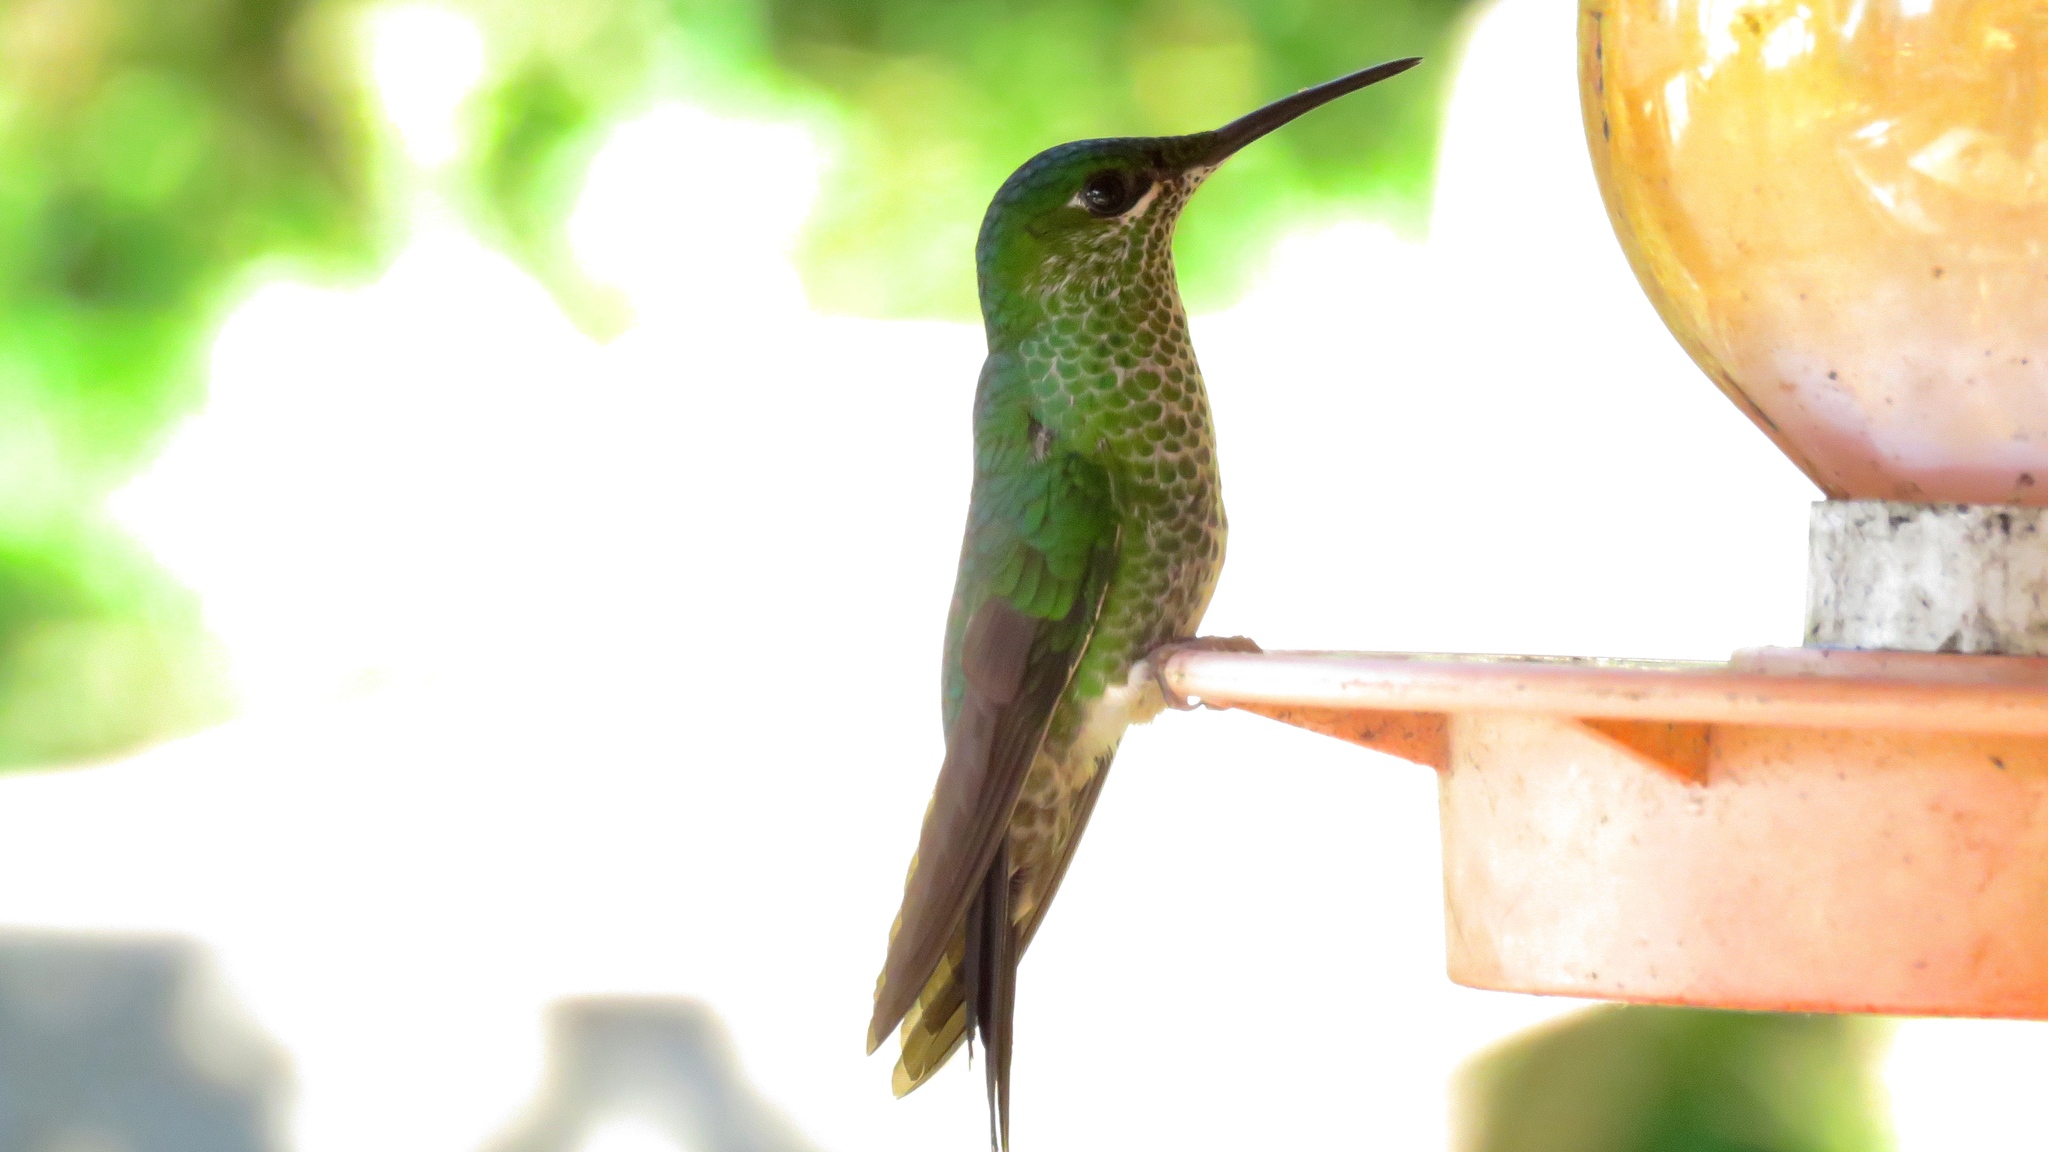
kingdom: Animalia
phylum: Chordata
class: Aves
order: Apodiformes
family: Trochilidae
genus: Heliodoxa
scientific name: Heliodoxa jacula
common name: Green-crowned brilliant
